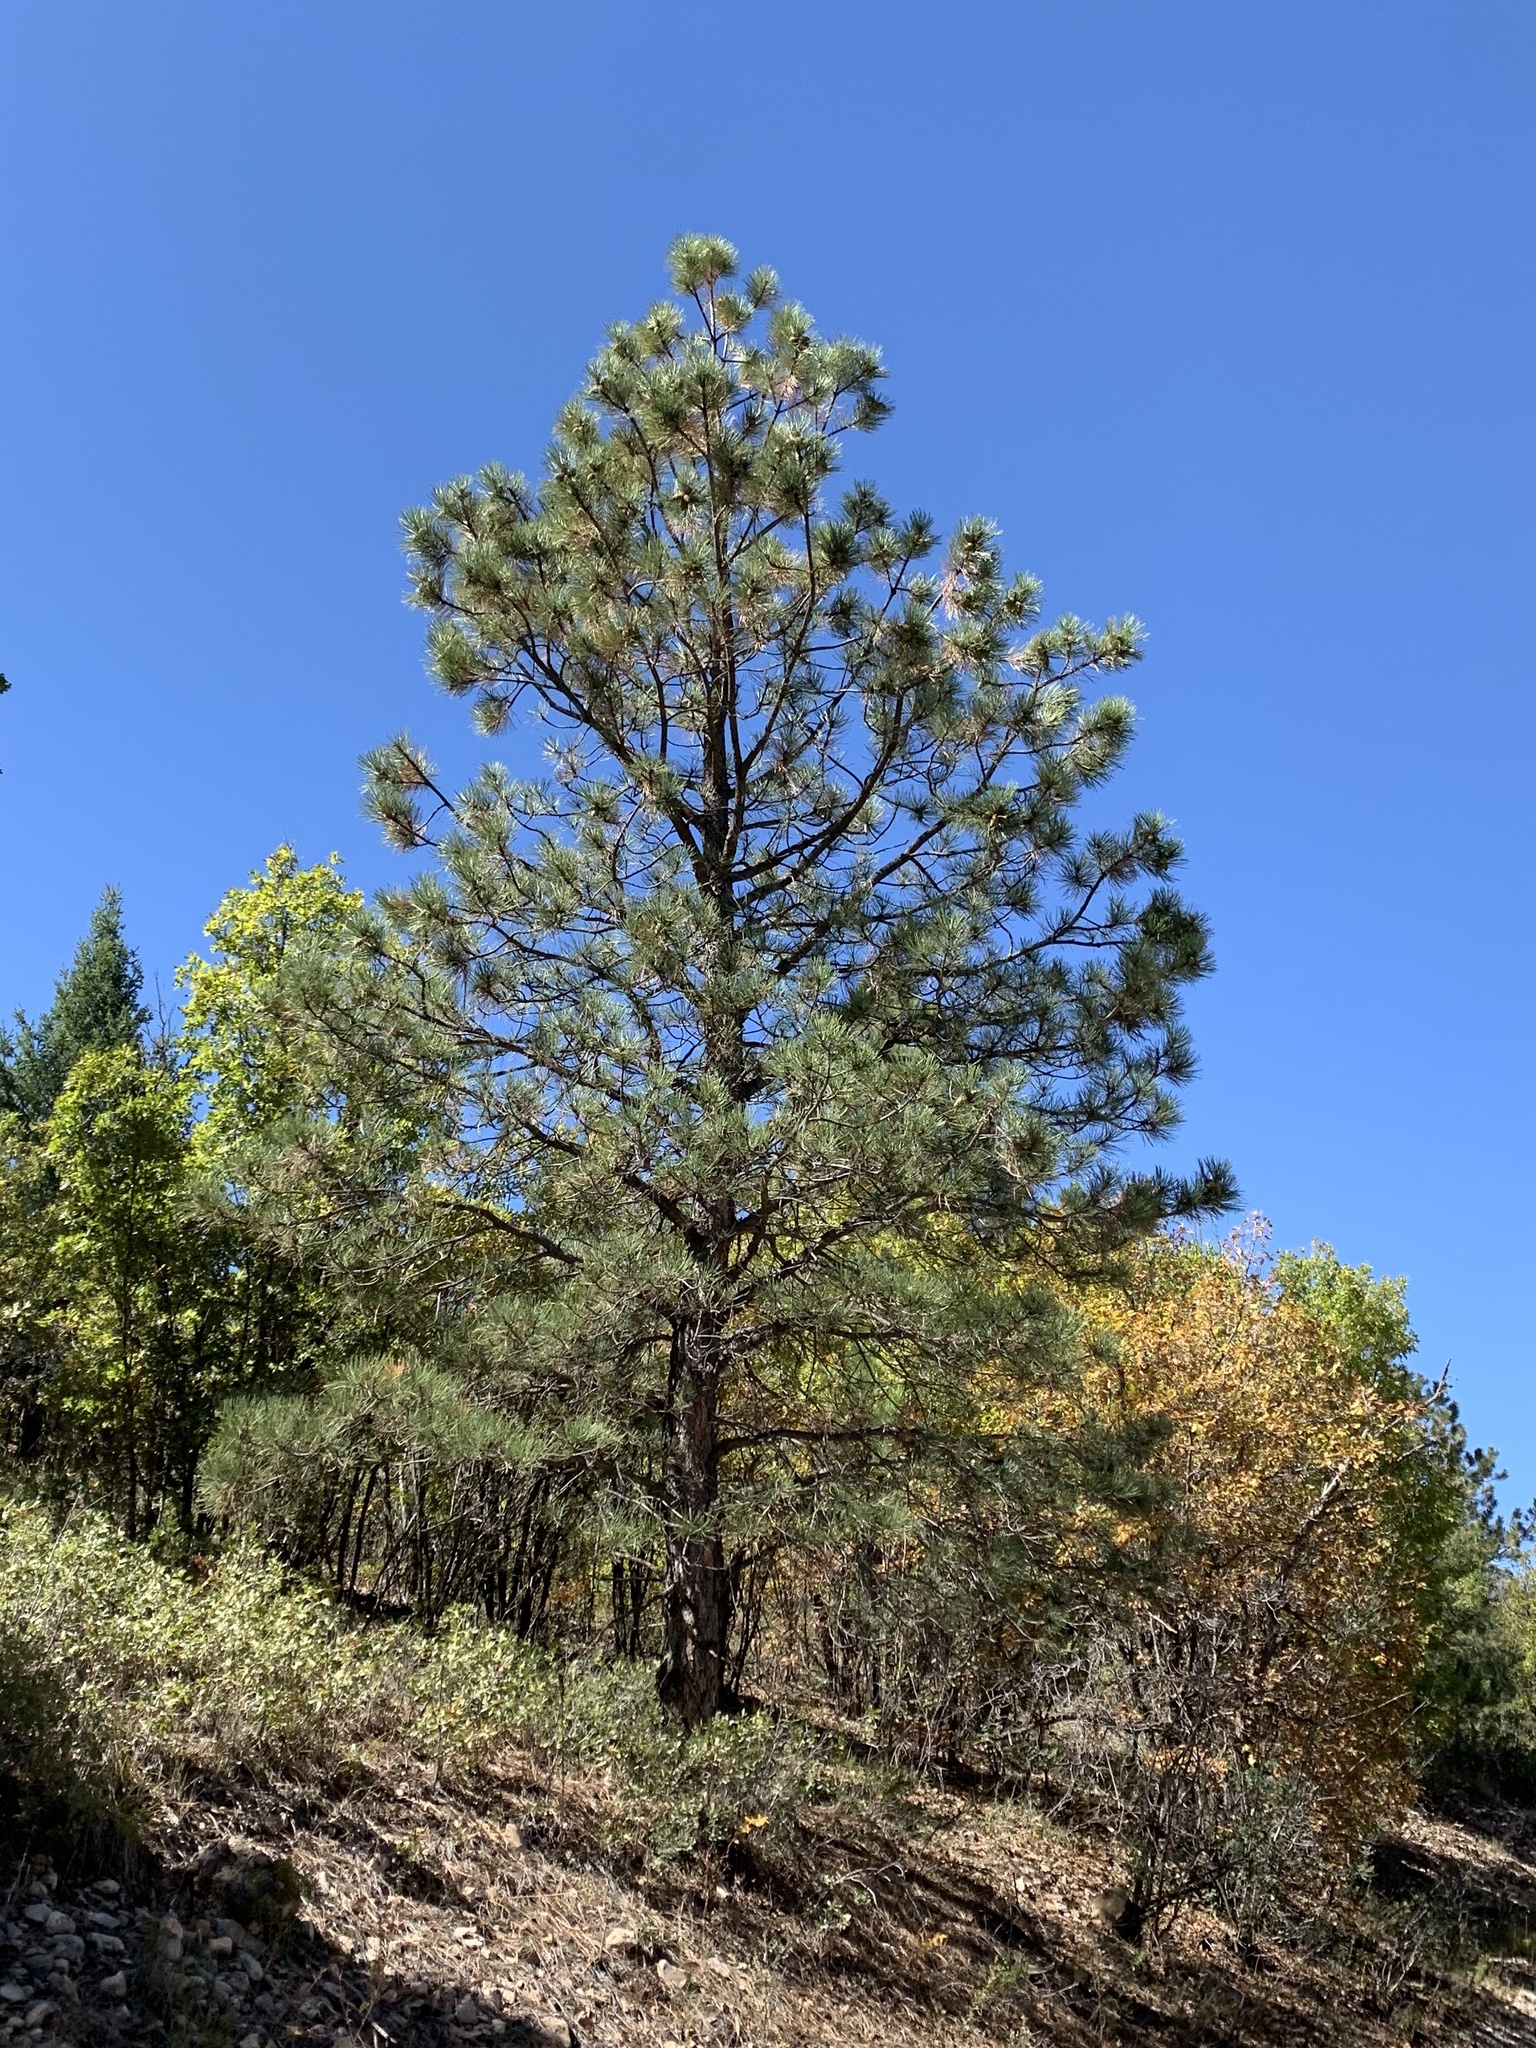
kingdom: Plantae
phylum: Tracheophyta
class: Pinopsida
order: Pinales
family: Pinaceae
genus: Pinus
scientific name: Pinus ponderosa
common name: Western yellow-pine
